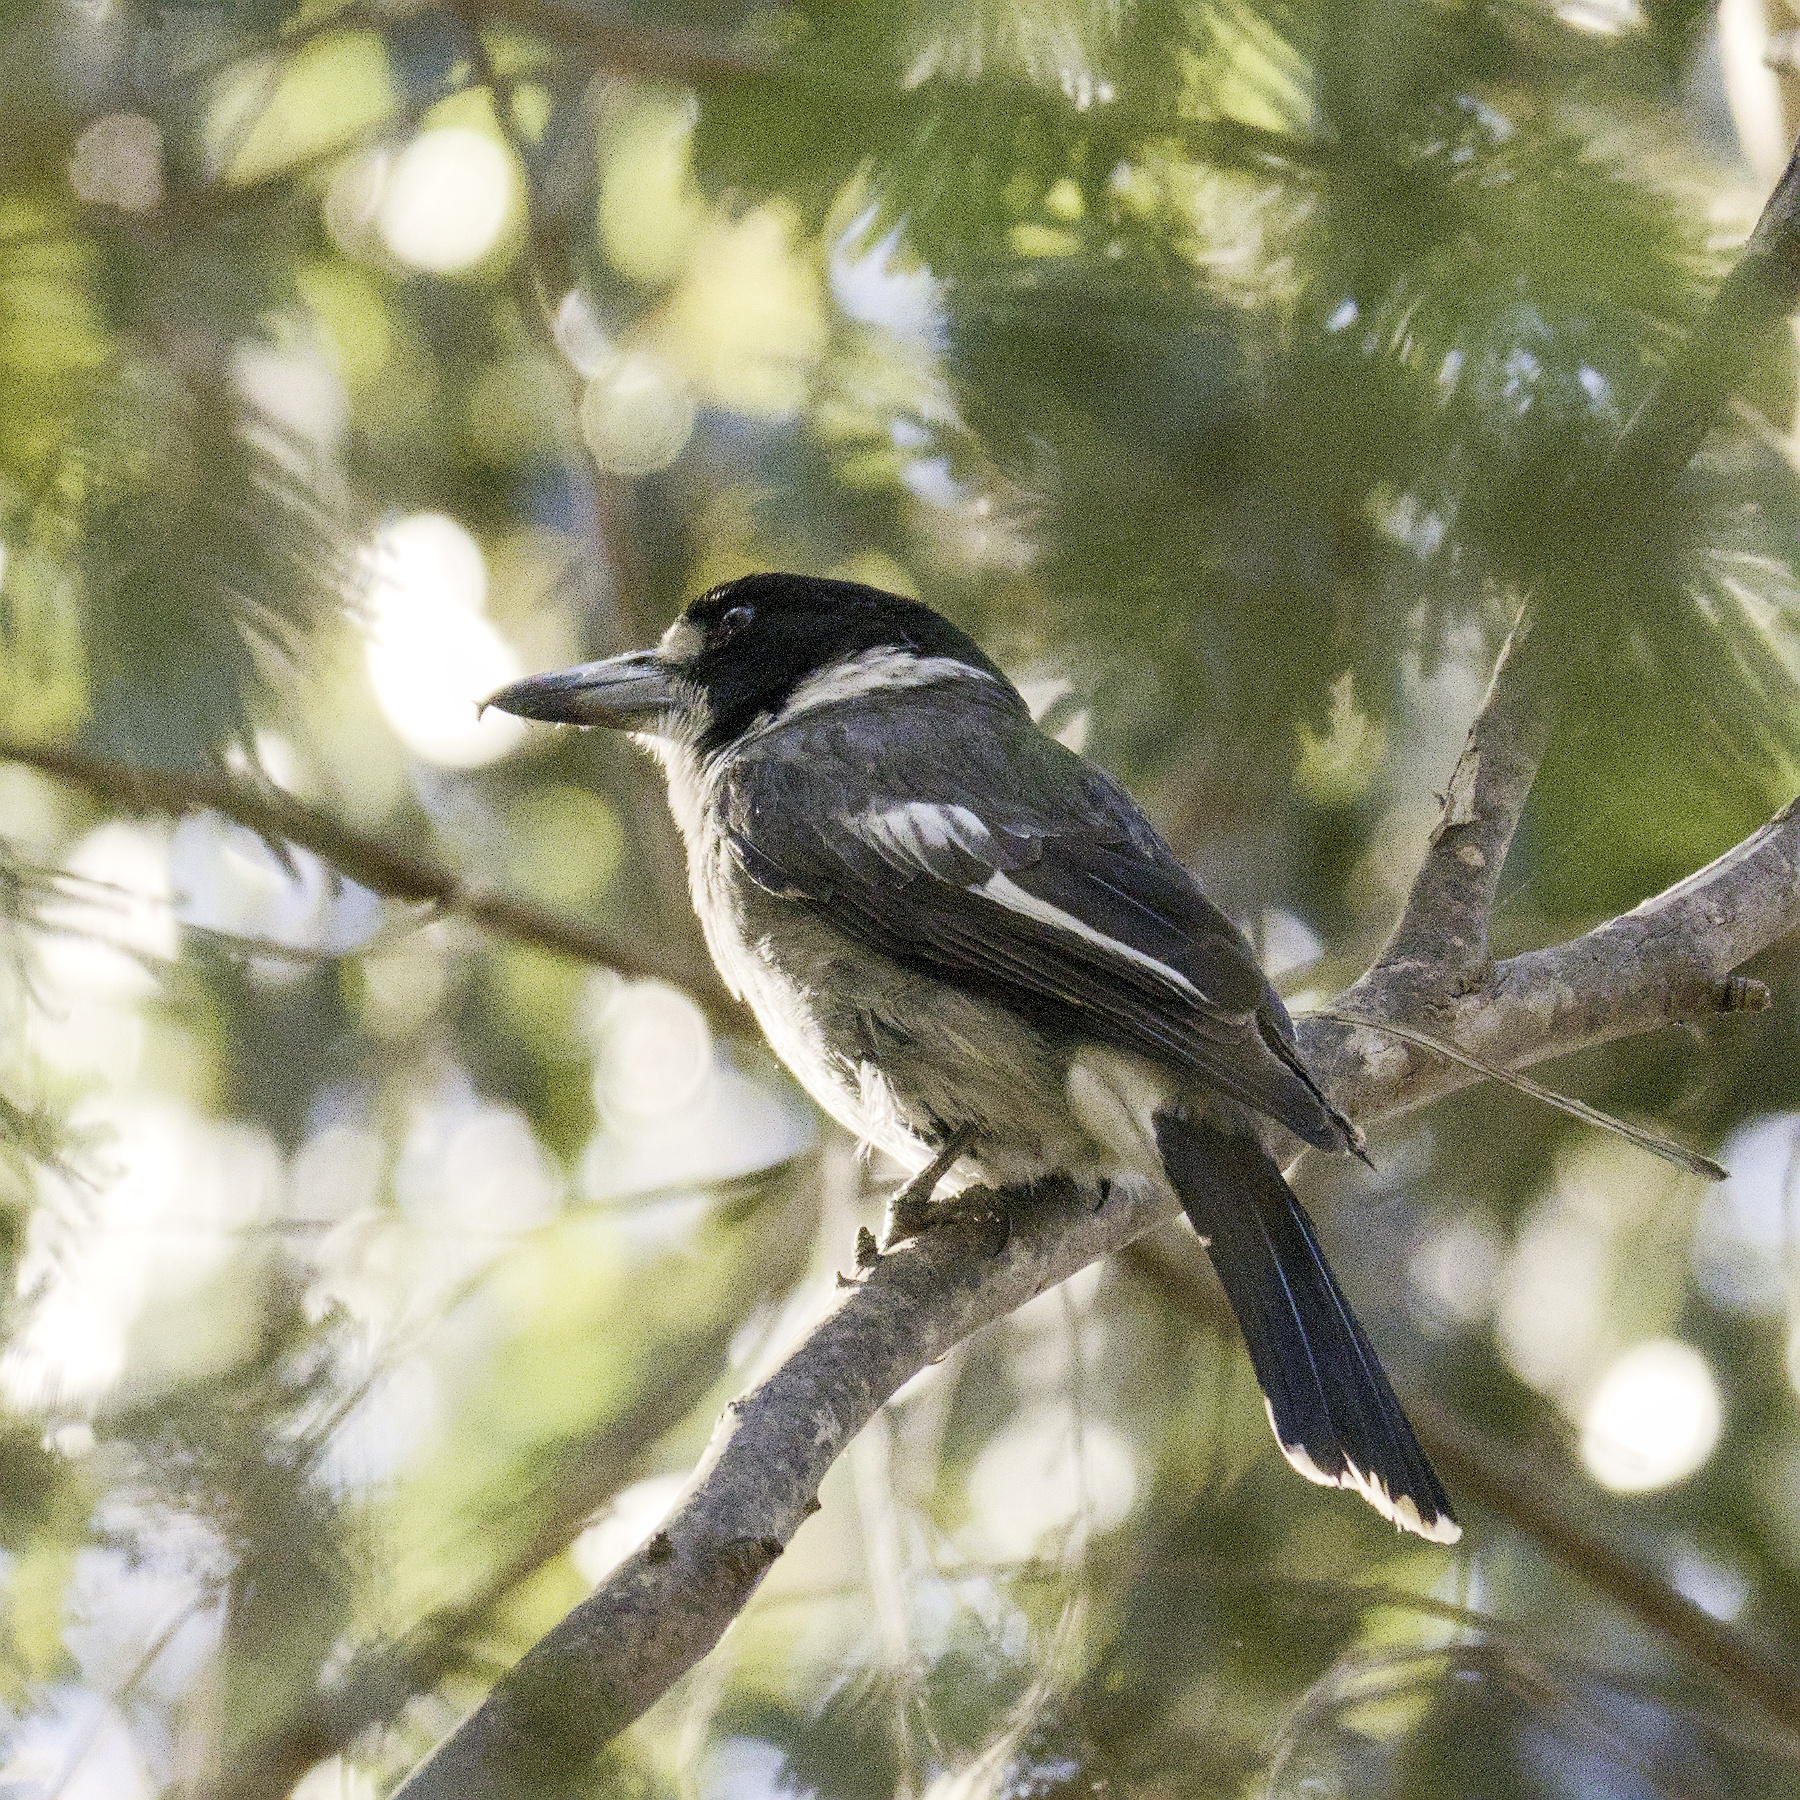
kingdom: Animalia
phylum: Chordata
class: Aves
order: Passeriformes
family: Cracticidae
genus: Cracticus
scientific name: Cracticus torquatus
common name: Grey butcherbird
